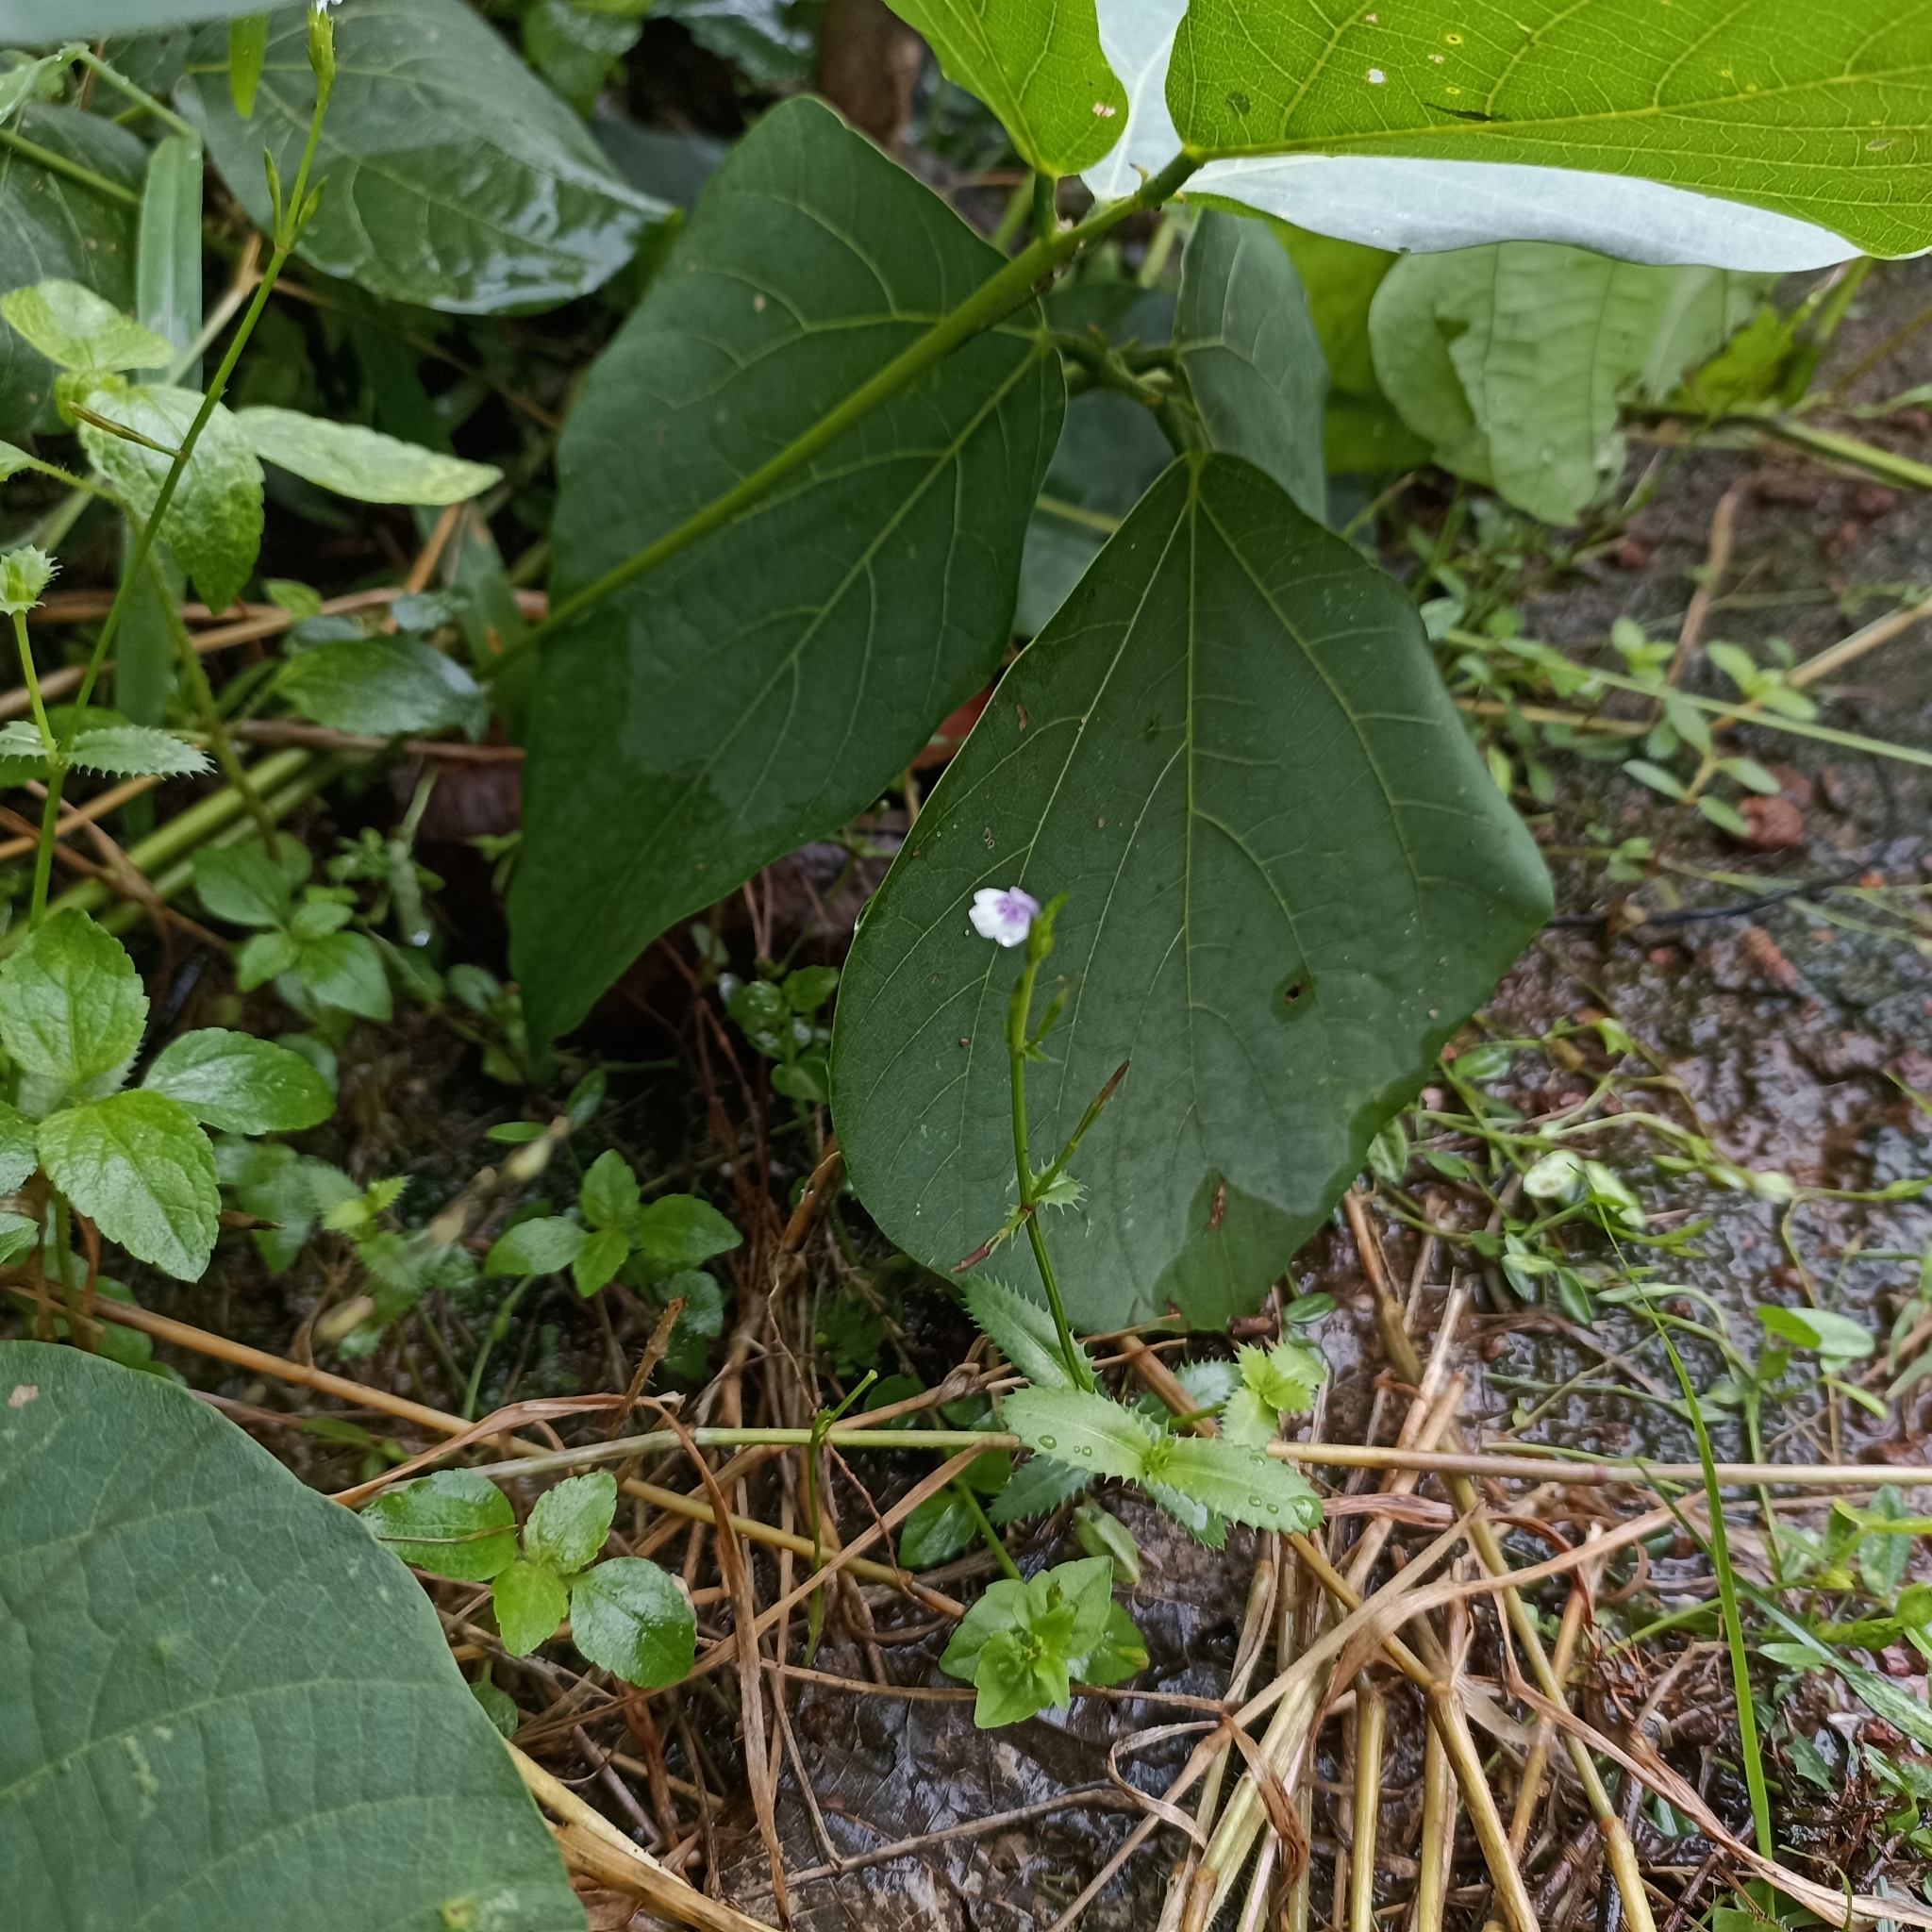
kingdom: Plantae
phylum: Tracheophyta
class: Magnoliopsida
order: Lamiales
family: Linderniaceae
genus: Bonnaya
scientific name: Bonnaya ciliata
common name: Hairy slitwort
